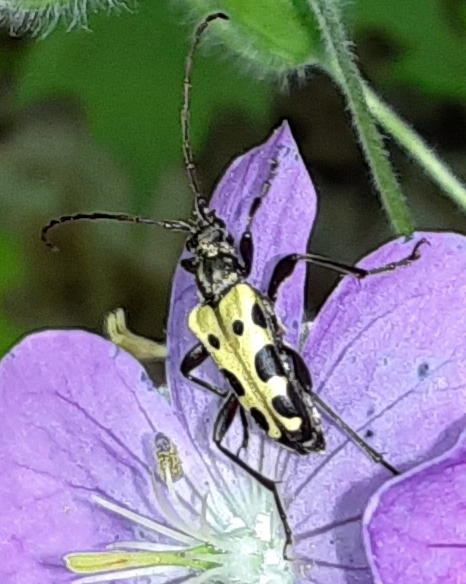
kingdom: Animalia
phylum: Arthropoda
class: Insecta
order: Coleoptera
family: Cerambycidae
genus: Evodinus
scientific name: Evodinus monticola
